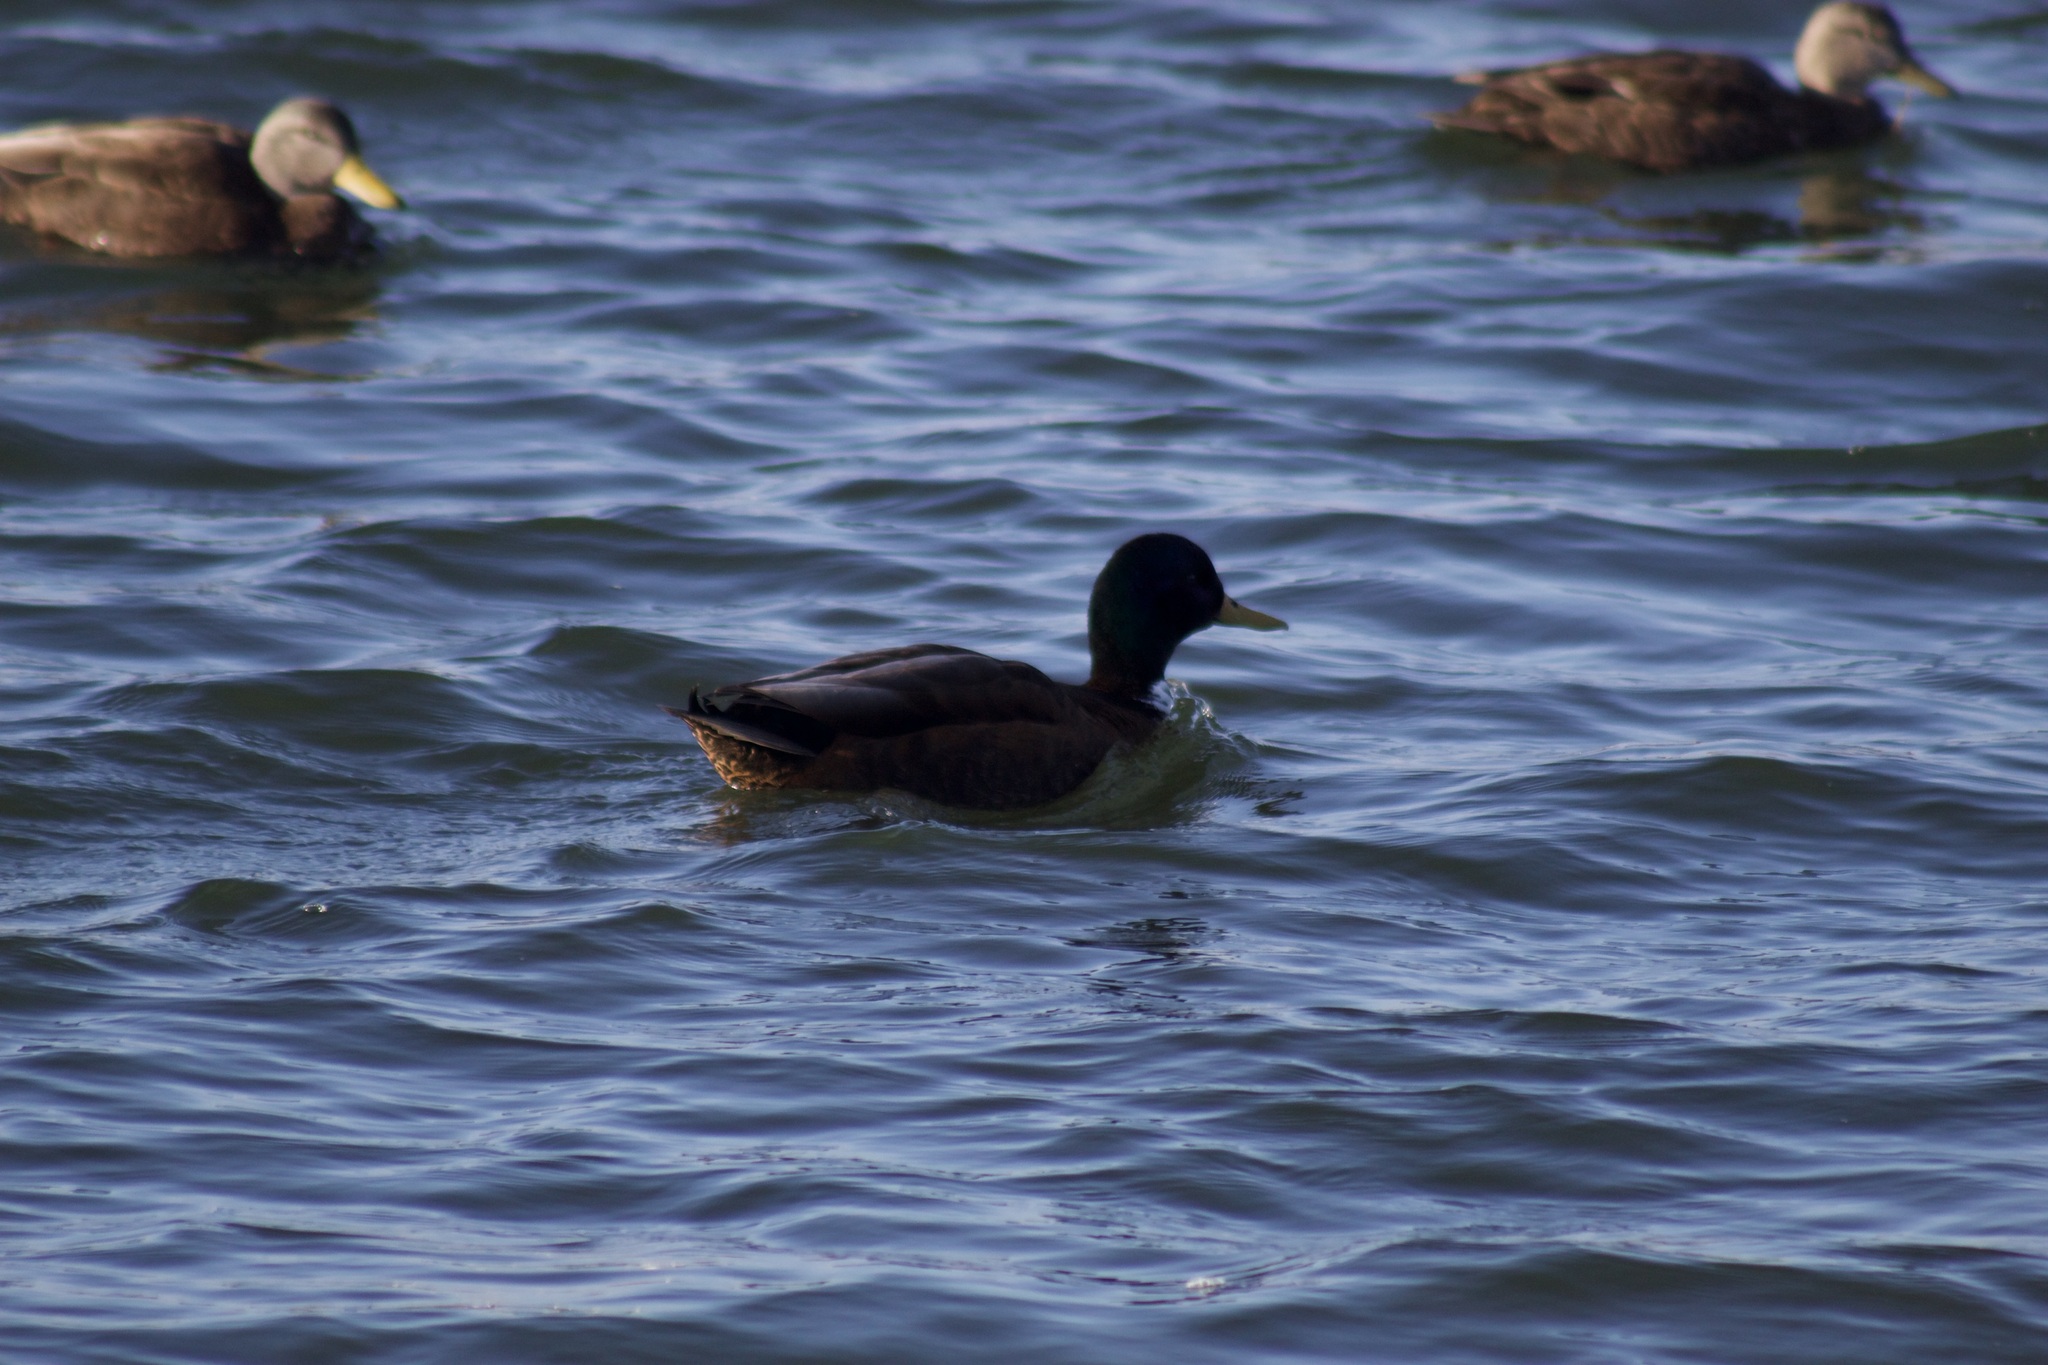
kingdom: Animalia
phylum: Chordata
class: Aves
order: Anseriformes
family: Anatidae
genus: Anas
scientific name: Anas platyrhynchos
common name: Mallard
